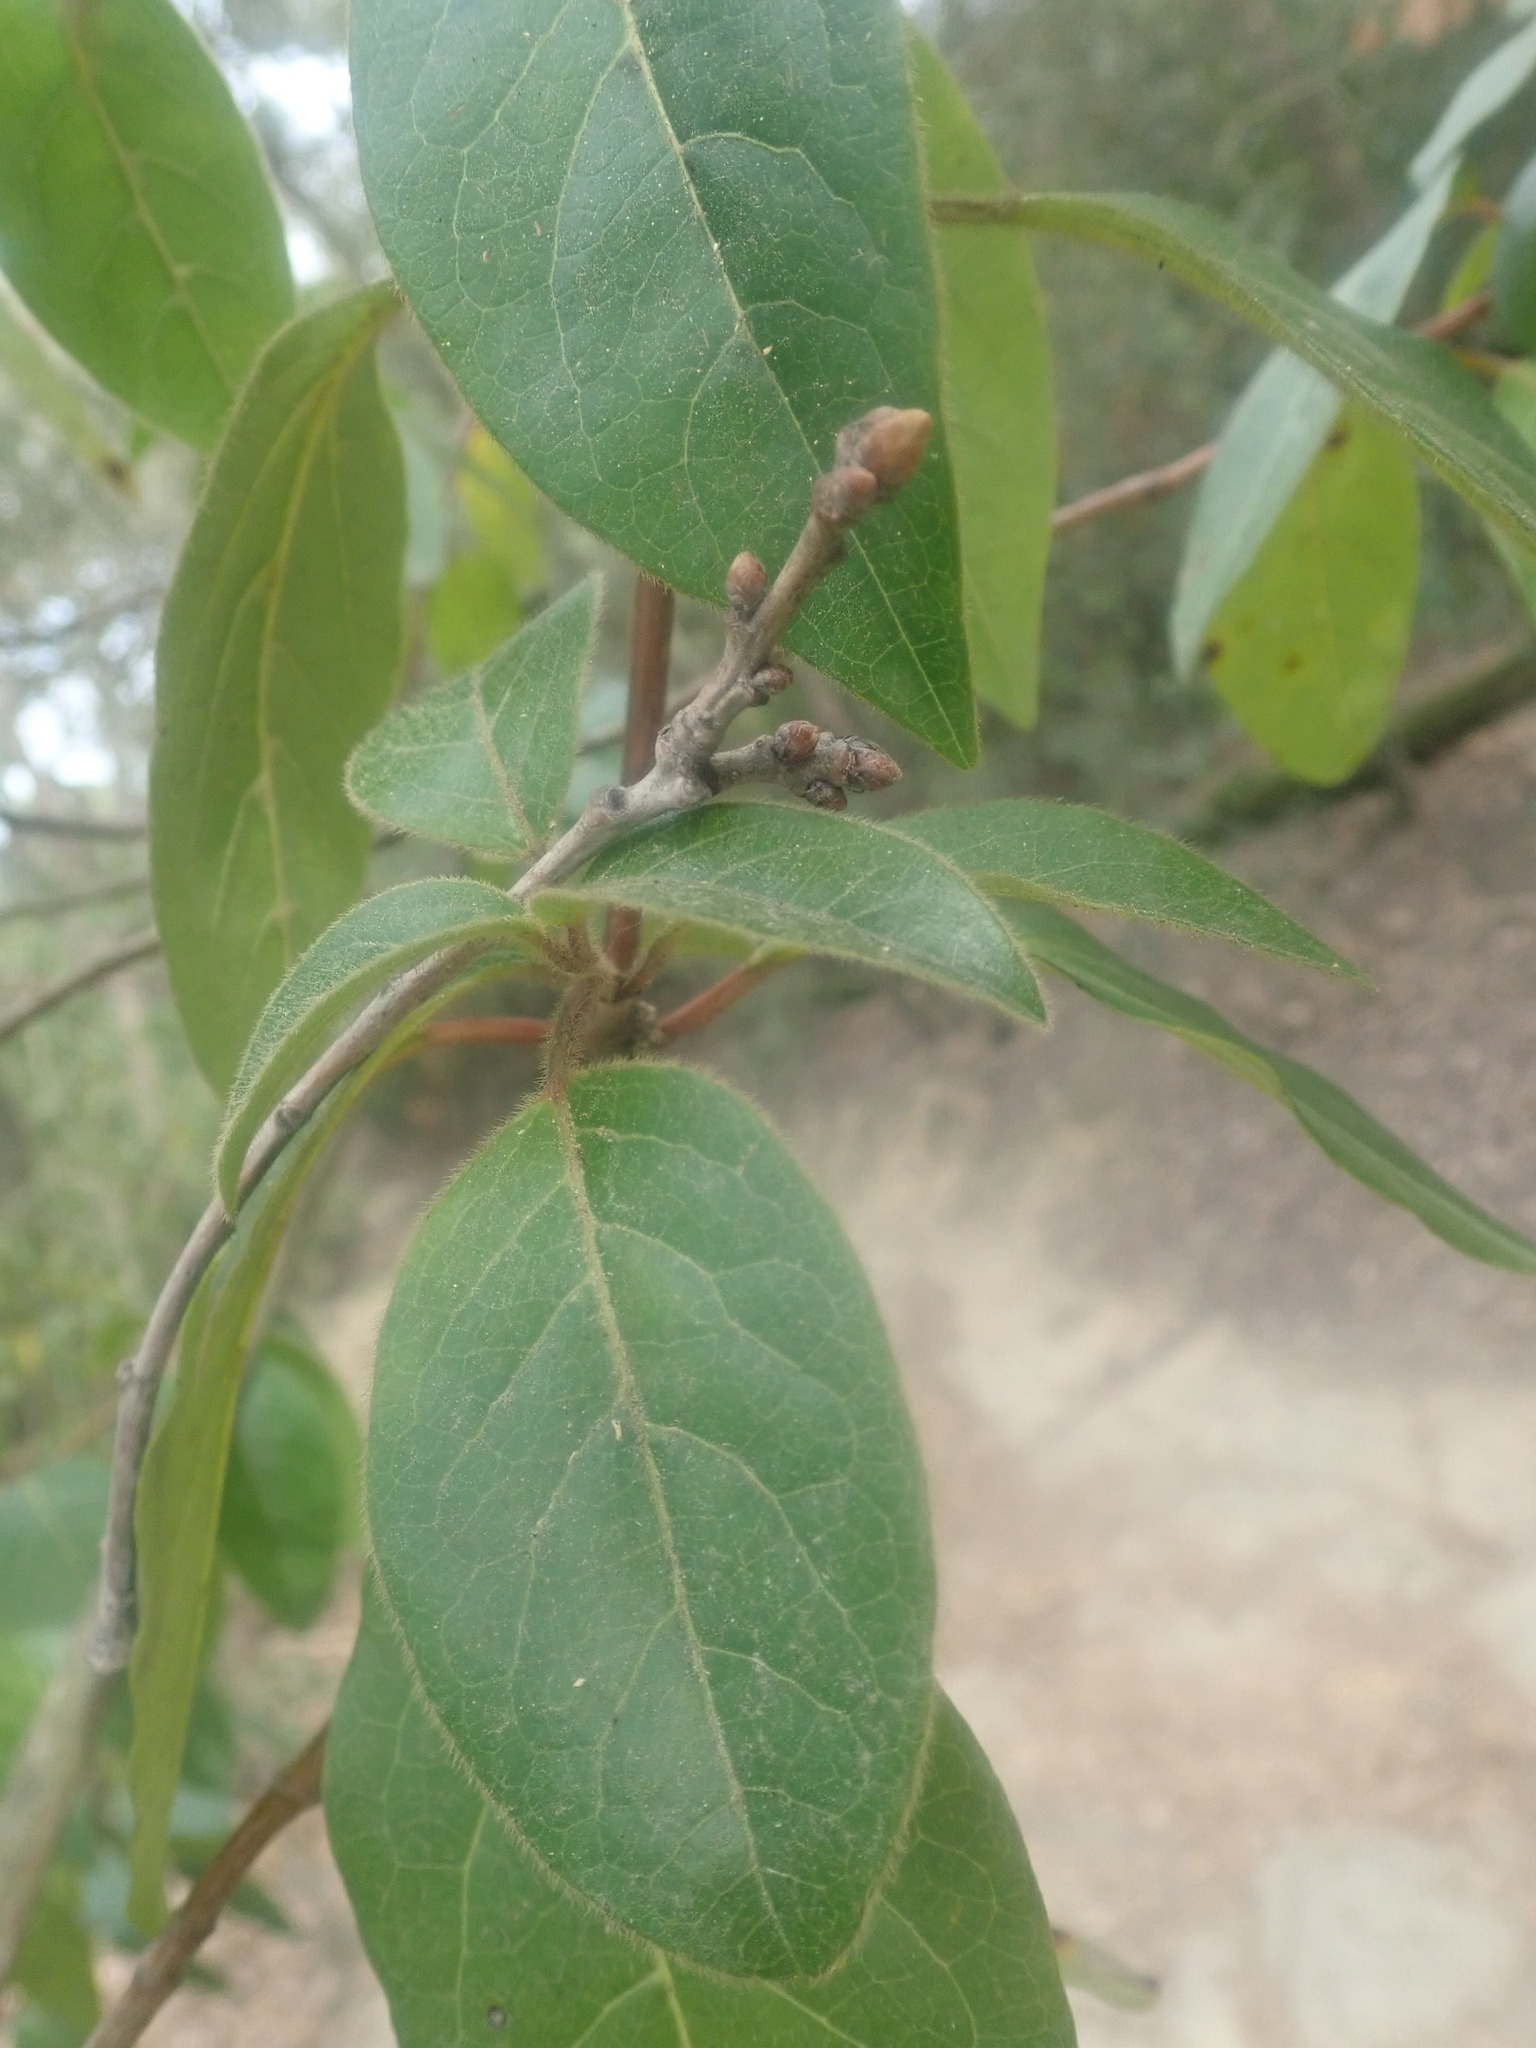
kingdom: Plantae
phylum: Tracheophyta
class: Magnoliopsida
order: Dipsacales
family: Viburnaceae
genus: Viburnum
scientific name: Viburnum tinus
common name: Laurustinus
